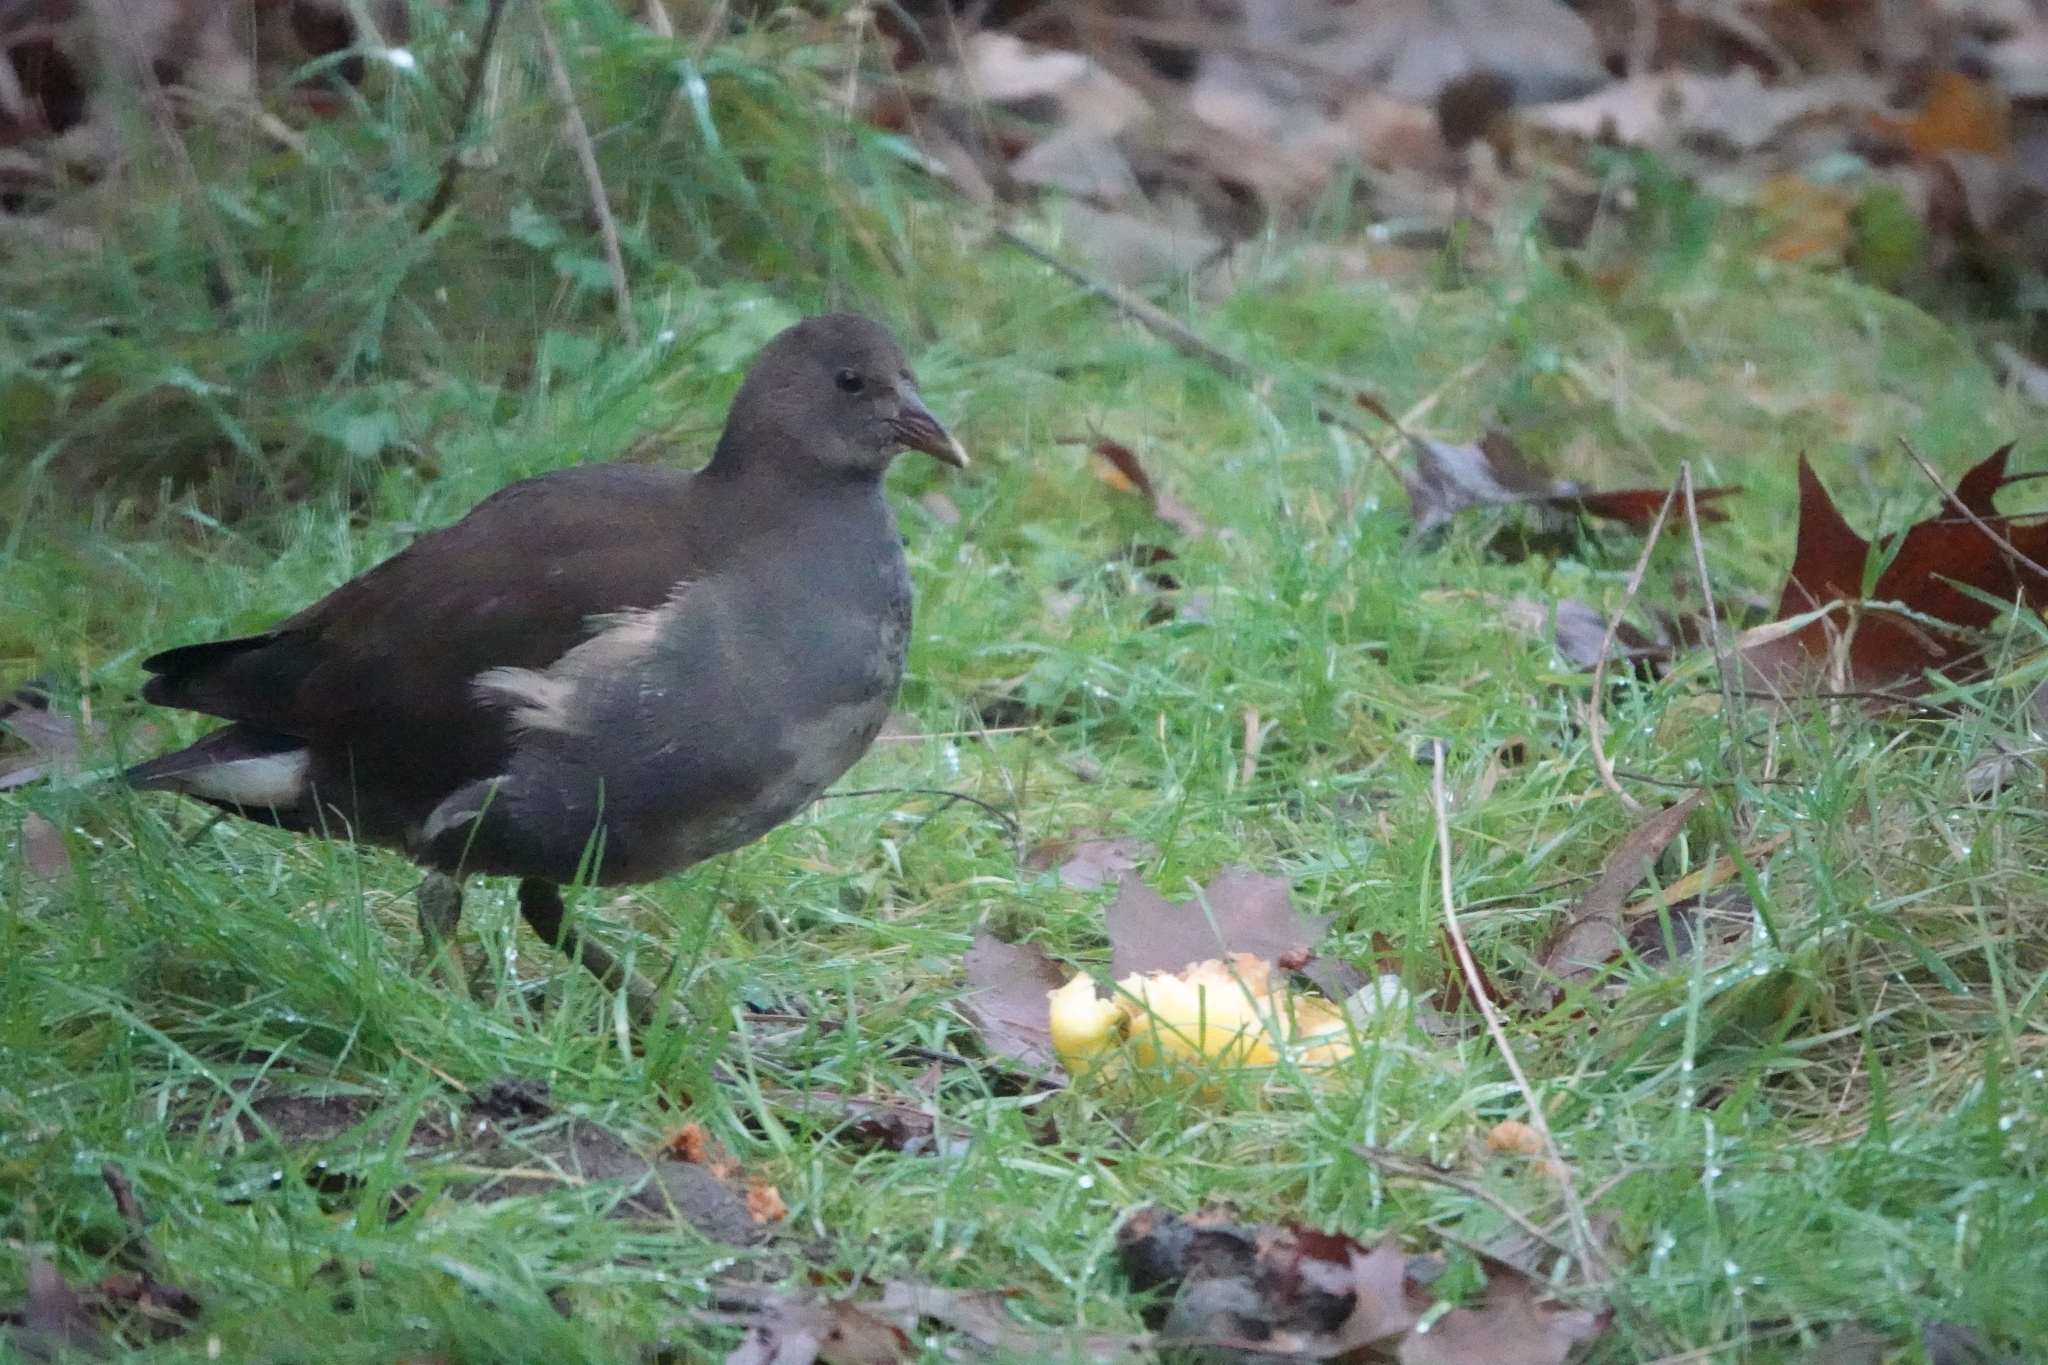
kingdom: Animalia
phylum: Chordata
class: Aves
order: Gruiformes
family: Rallidae
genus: Gallinula
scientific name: Gallinula chloropus
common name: Common moorhen
